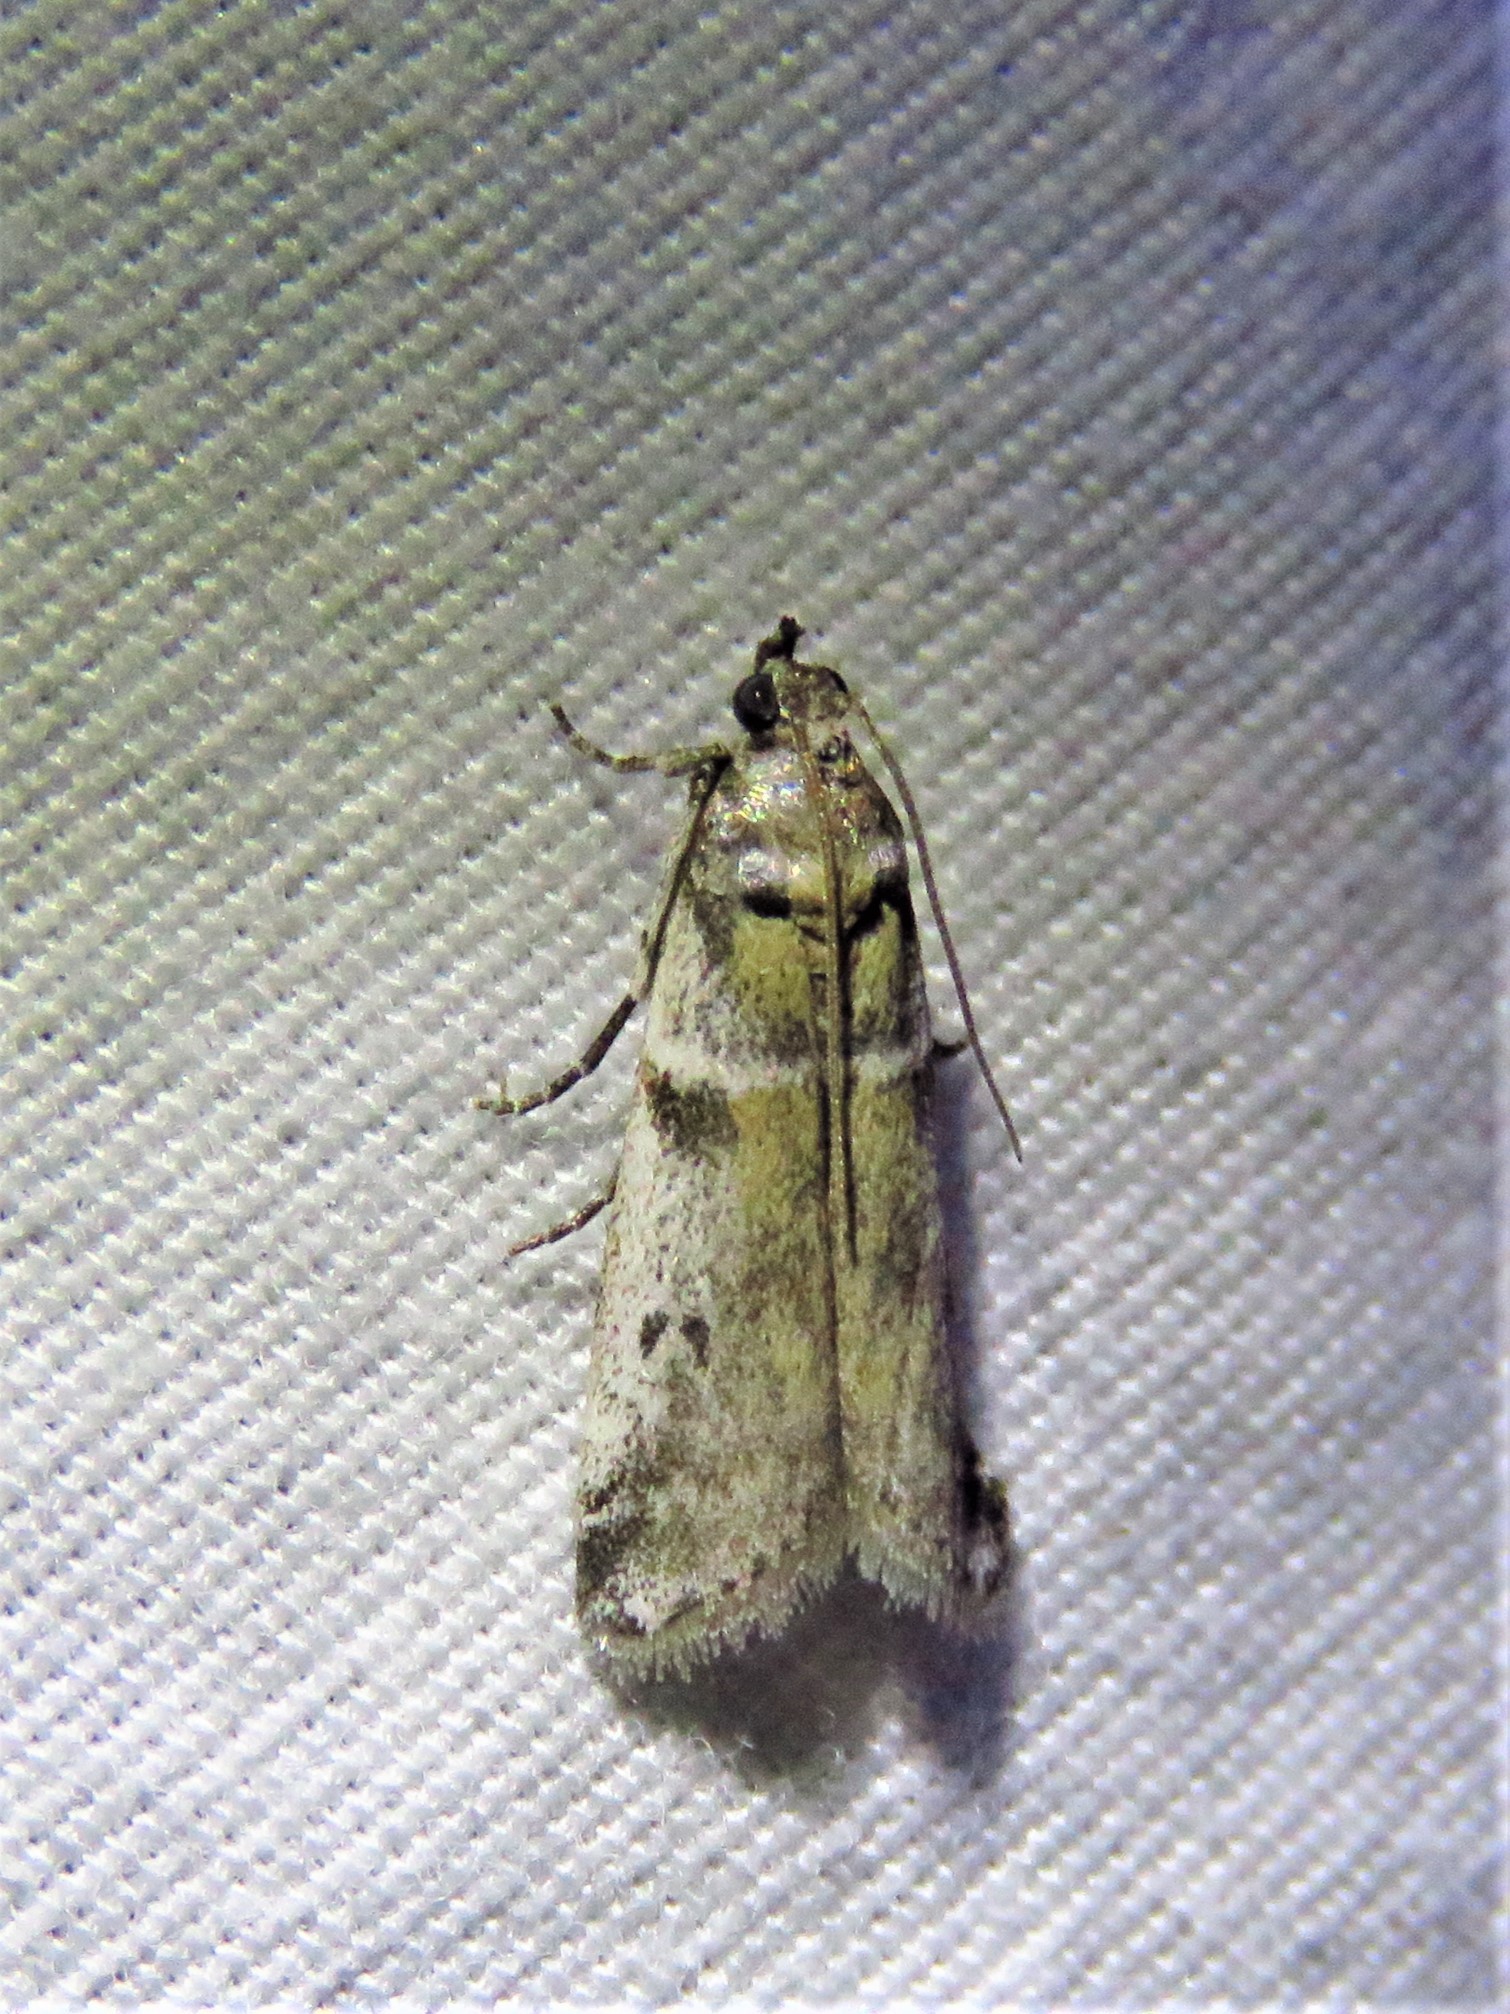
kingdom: Animalia
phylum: Arthropoda
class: Insecta
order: Lepidoptera
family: Pyralidae
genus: Laetilia
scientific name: Laetilia coccidivora
